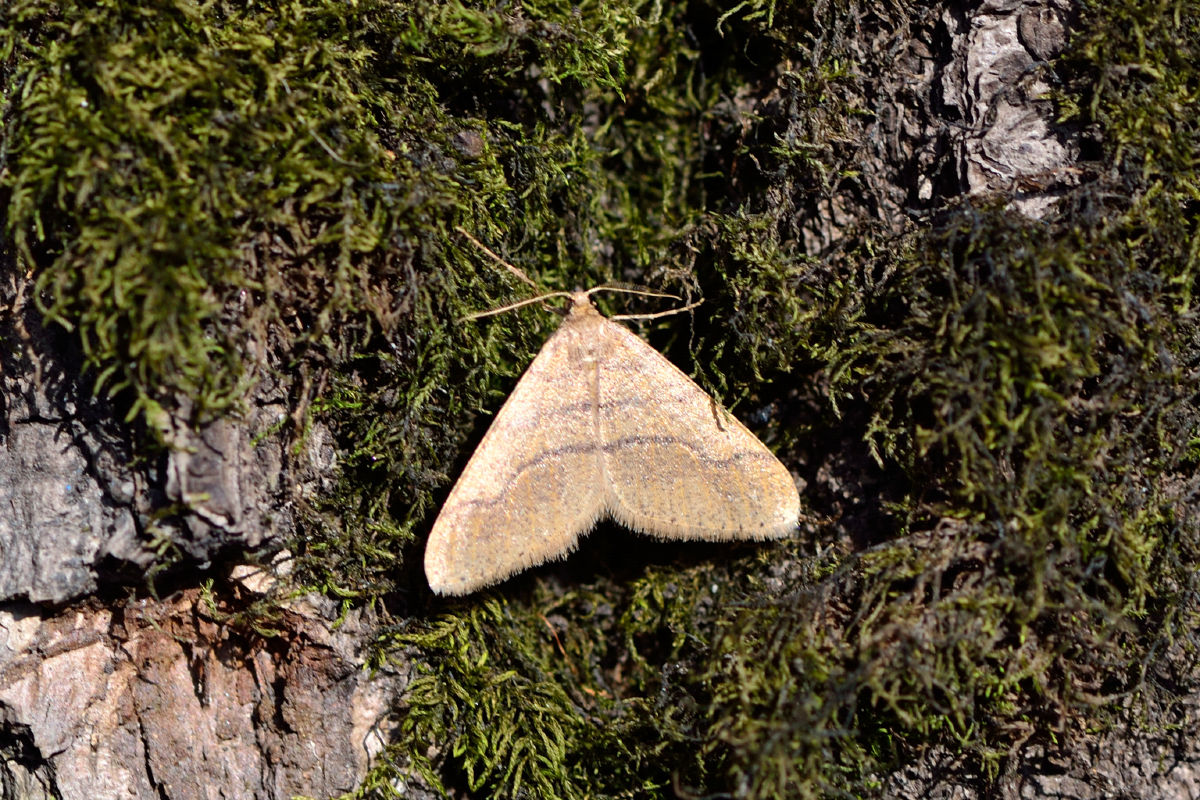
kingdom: Animalia
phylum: Arthropoda
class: Insecta
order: Lepidoptera
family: Geometridae
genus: Agriopis
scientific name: Agriopis marginaria
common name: Dotted border
